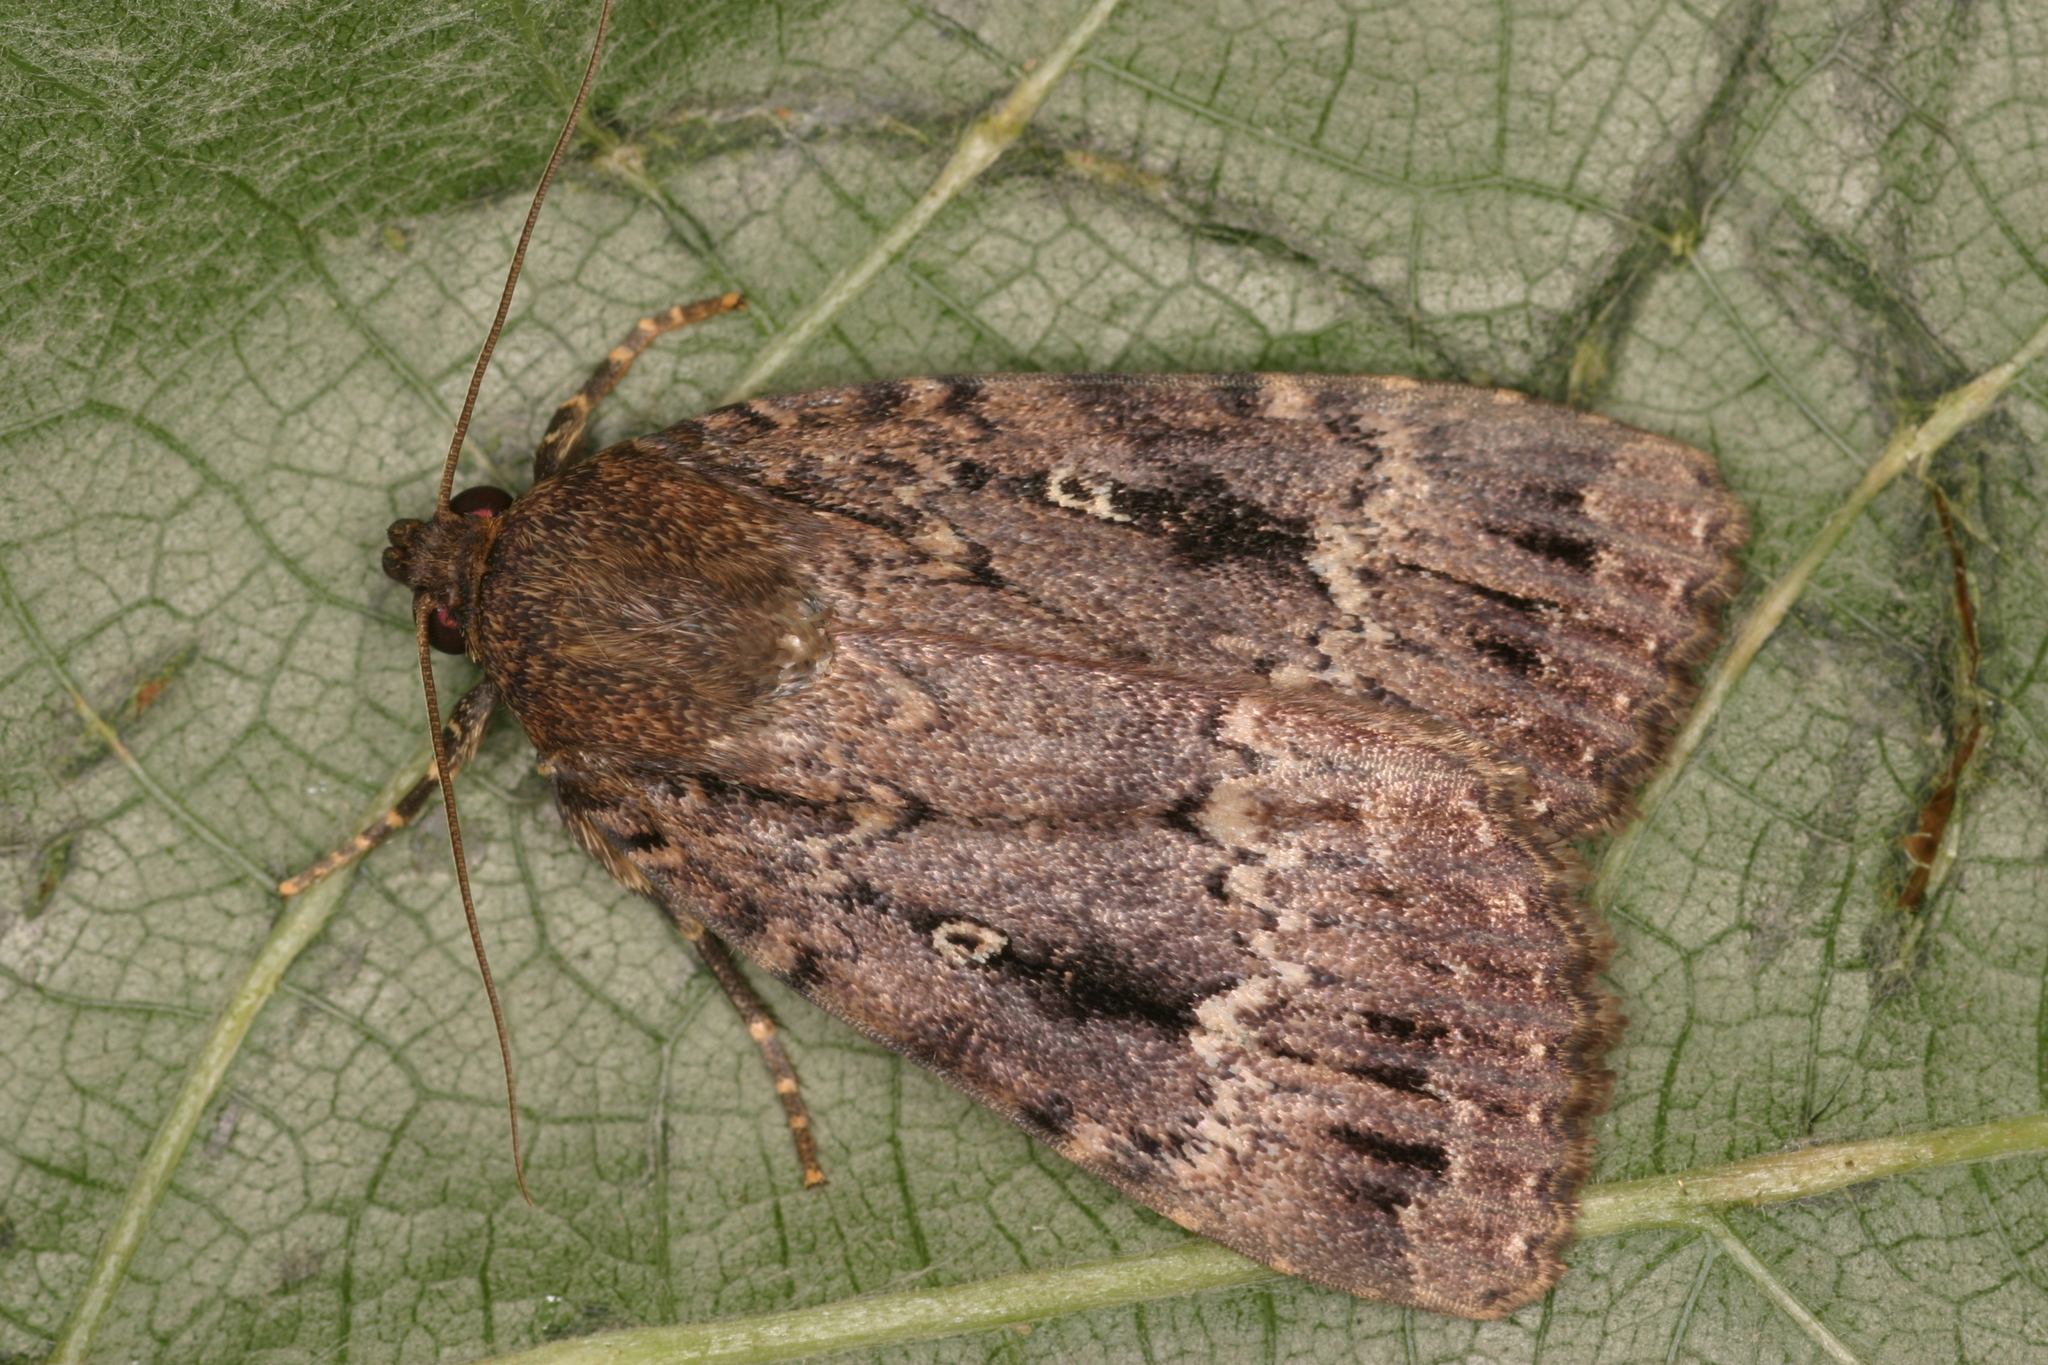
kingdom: Animalia
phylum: Arthropoda
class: Insecta
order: Lepidoptera
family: Noctuidae
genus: Amphipyra
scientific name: Amphipyra pyramidea
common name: Copper underwing
